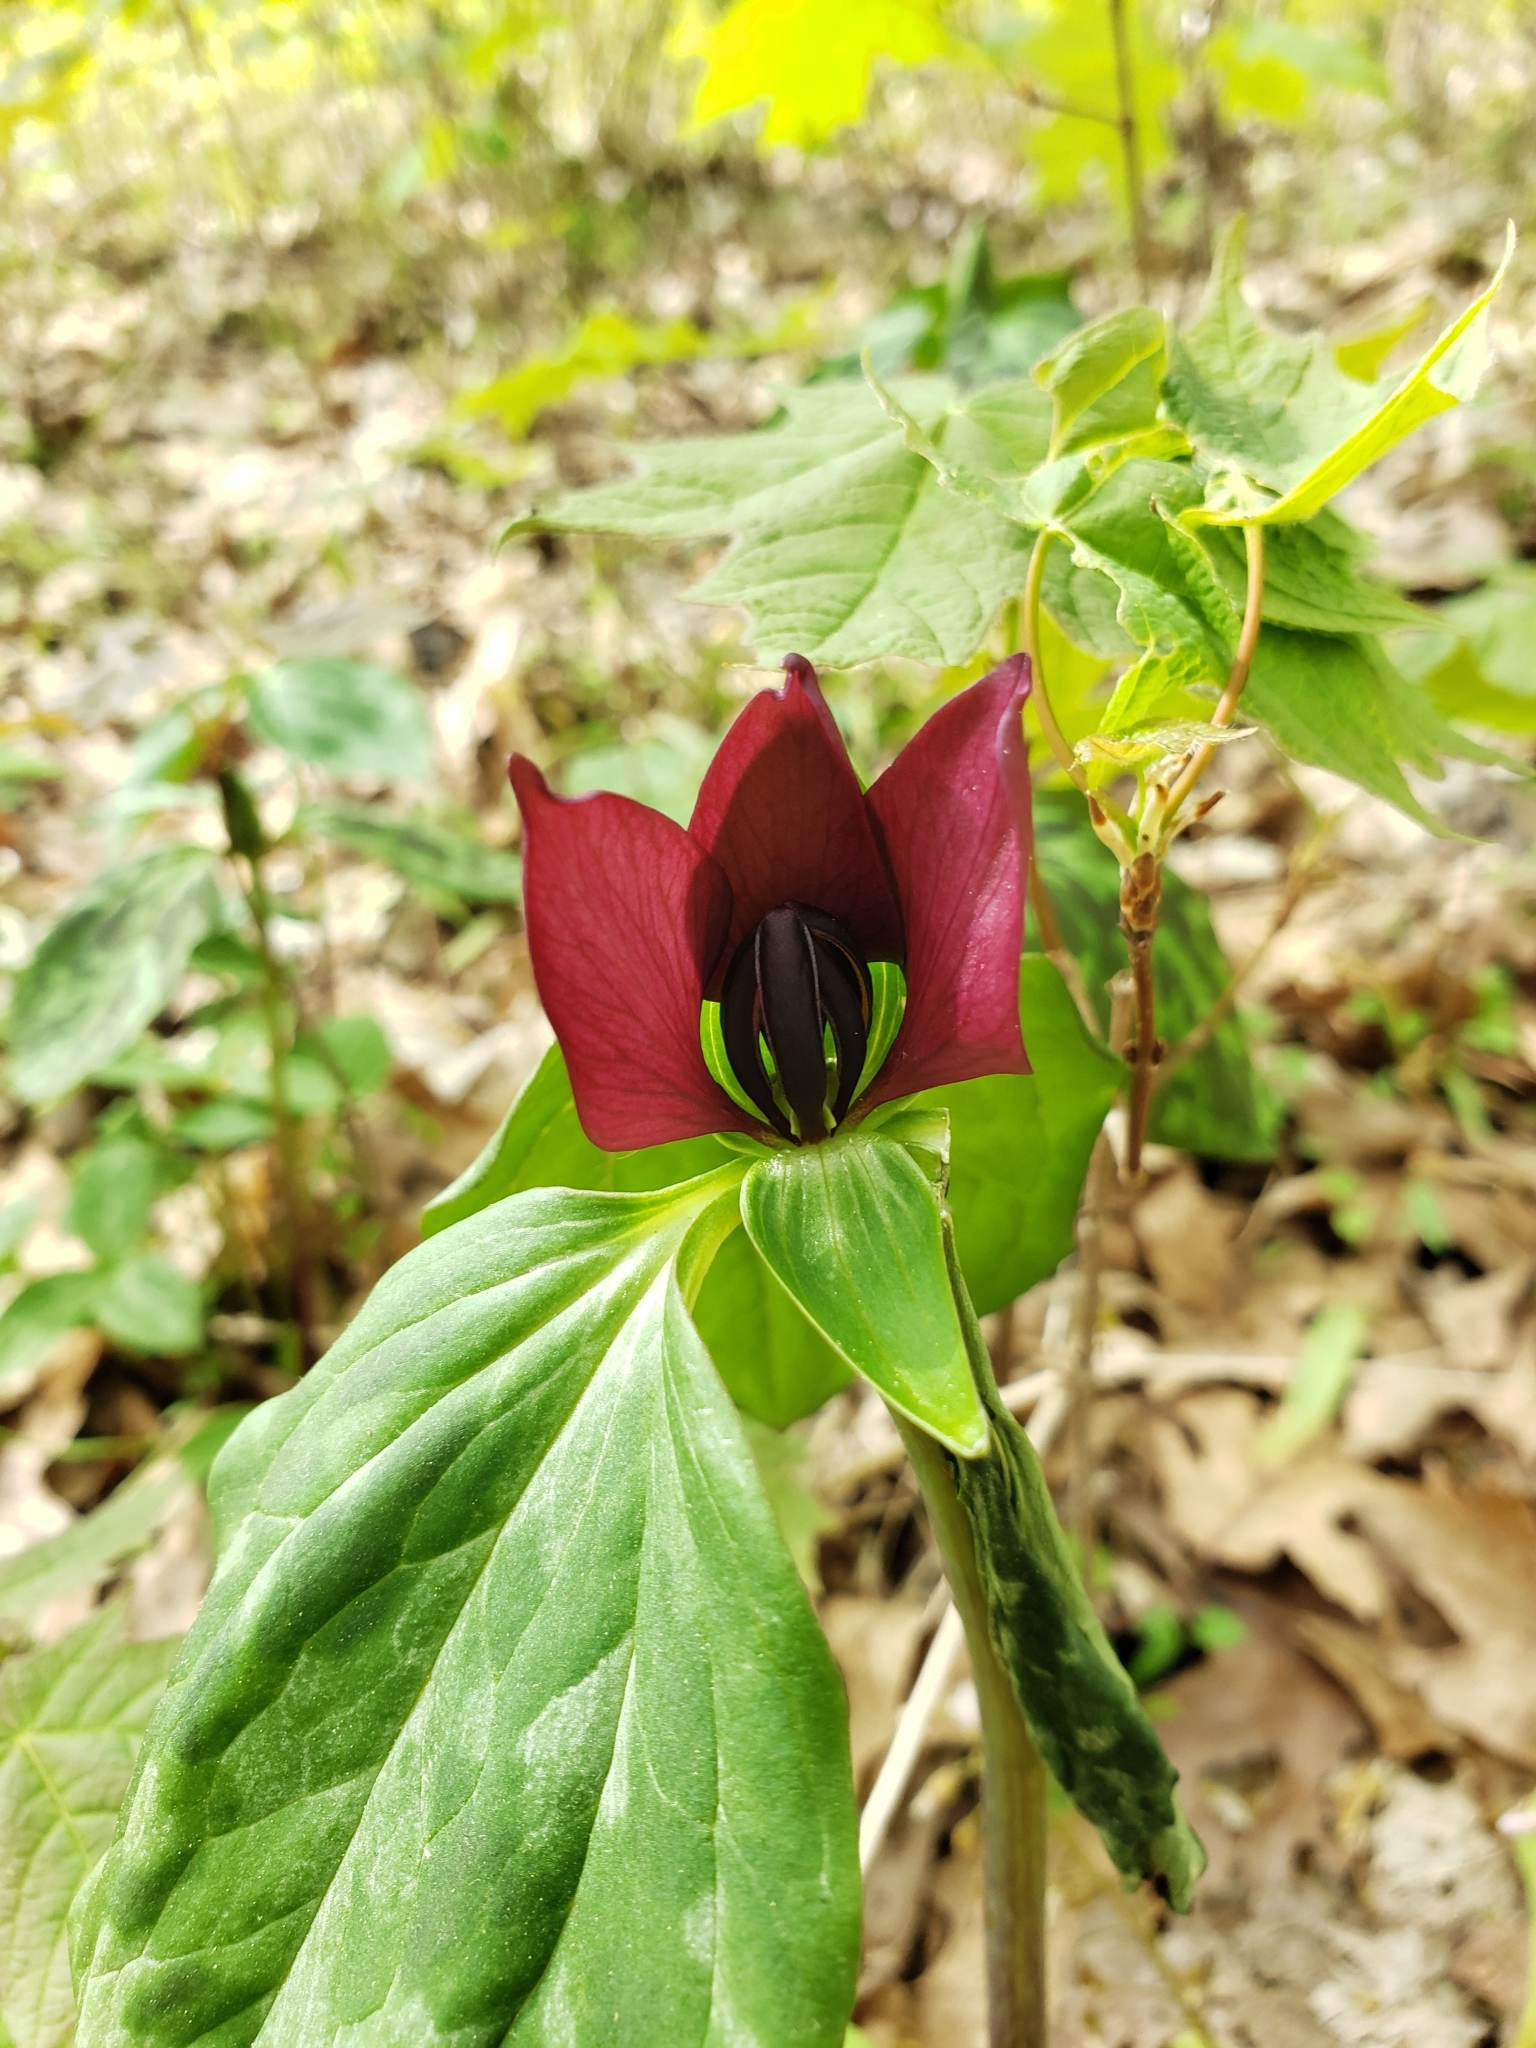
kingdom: Plantae
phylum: Tracheophyta
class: Liliopsida
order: Liliales
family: Melanthiaceae
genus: Trillium
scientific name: Trillium recurvatum
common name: Bloody butcher
